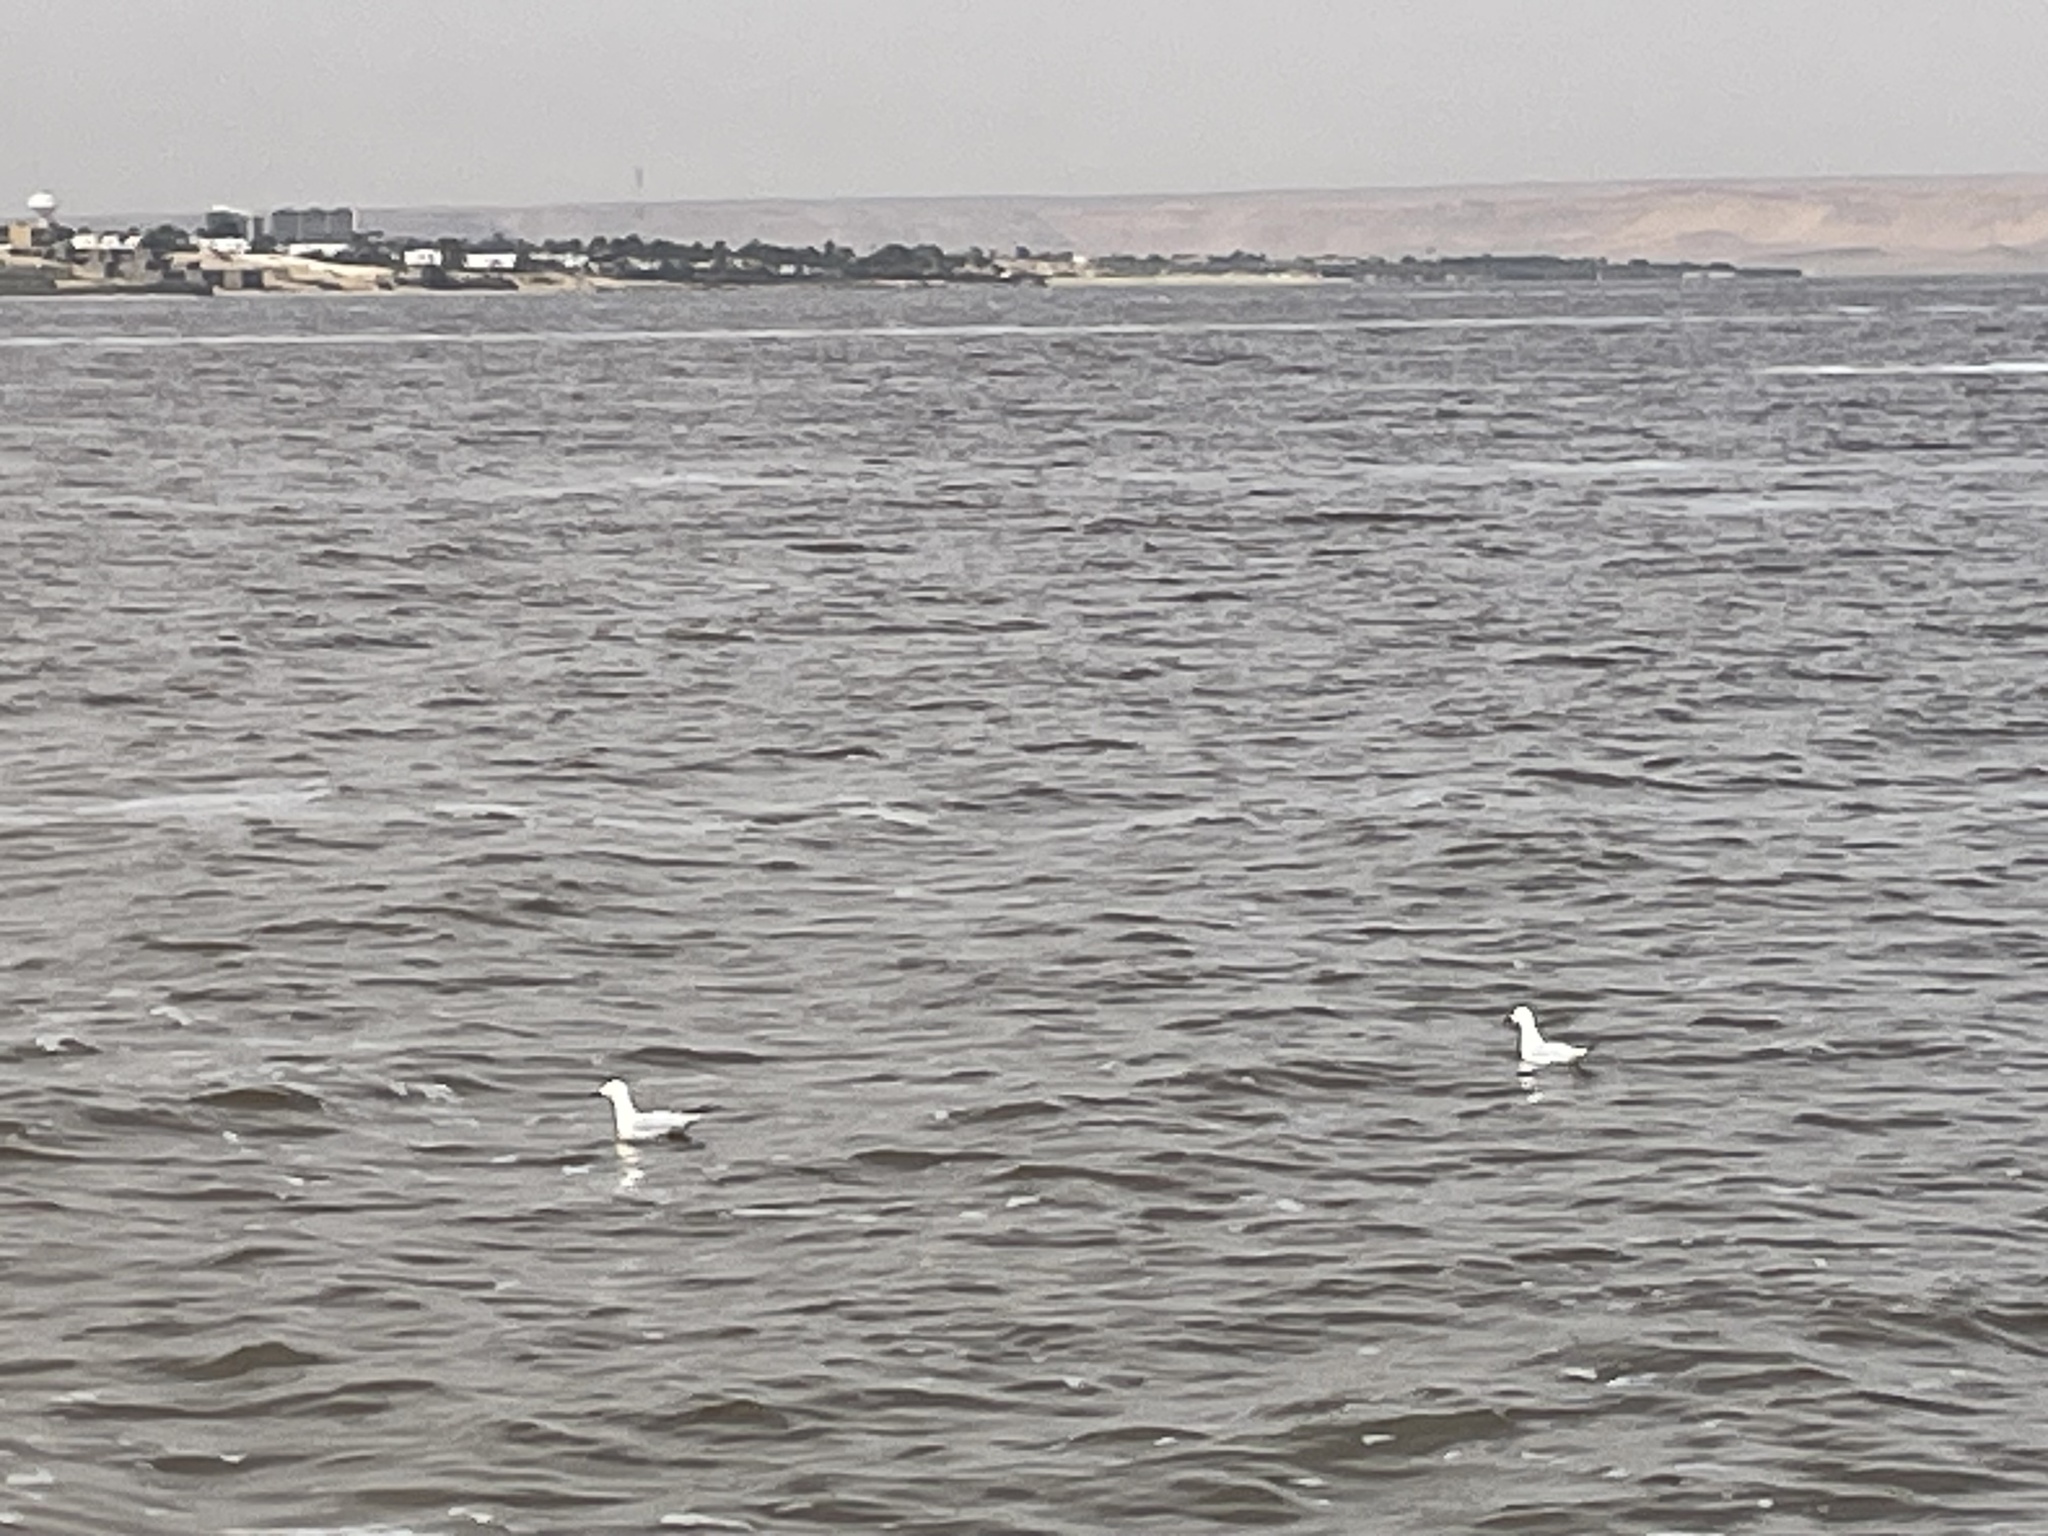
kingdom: Animalia
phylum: Chordata
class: Aves
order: Charadriiformes
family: Laridae
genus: Chroicocephalus
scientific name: Chroicocephalus genei
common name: Slender-billed gull
